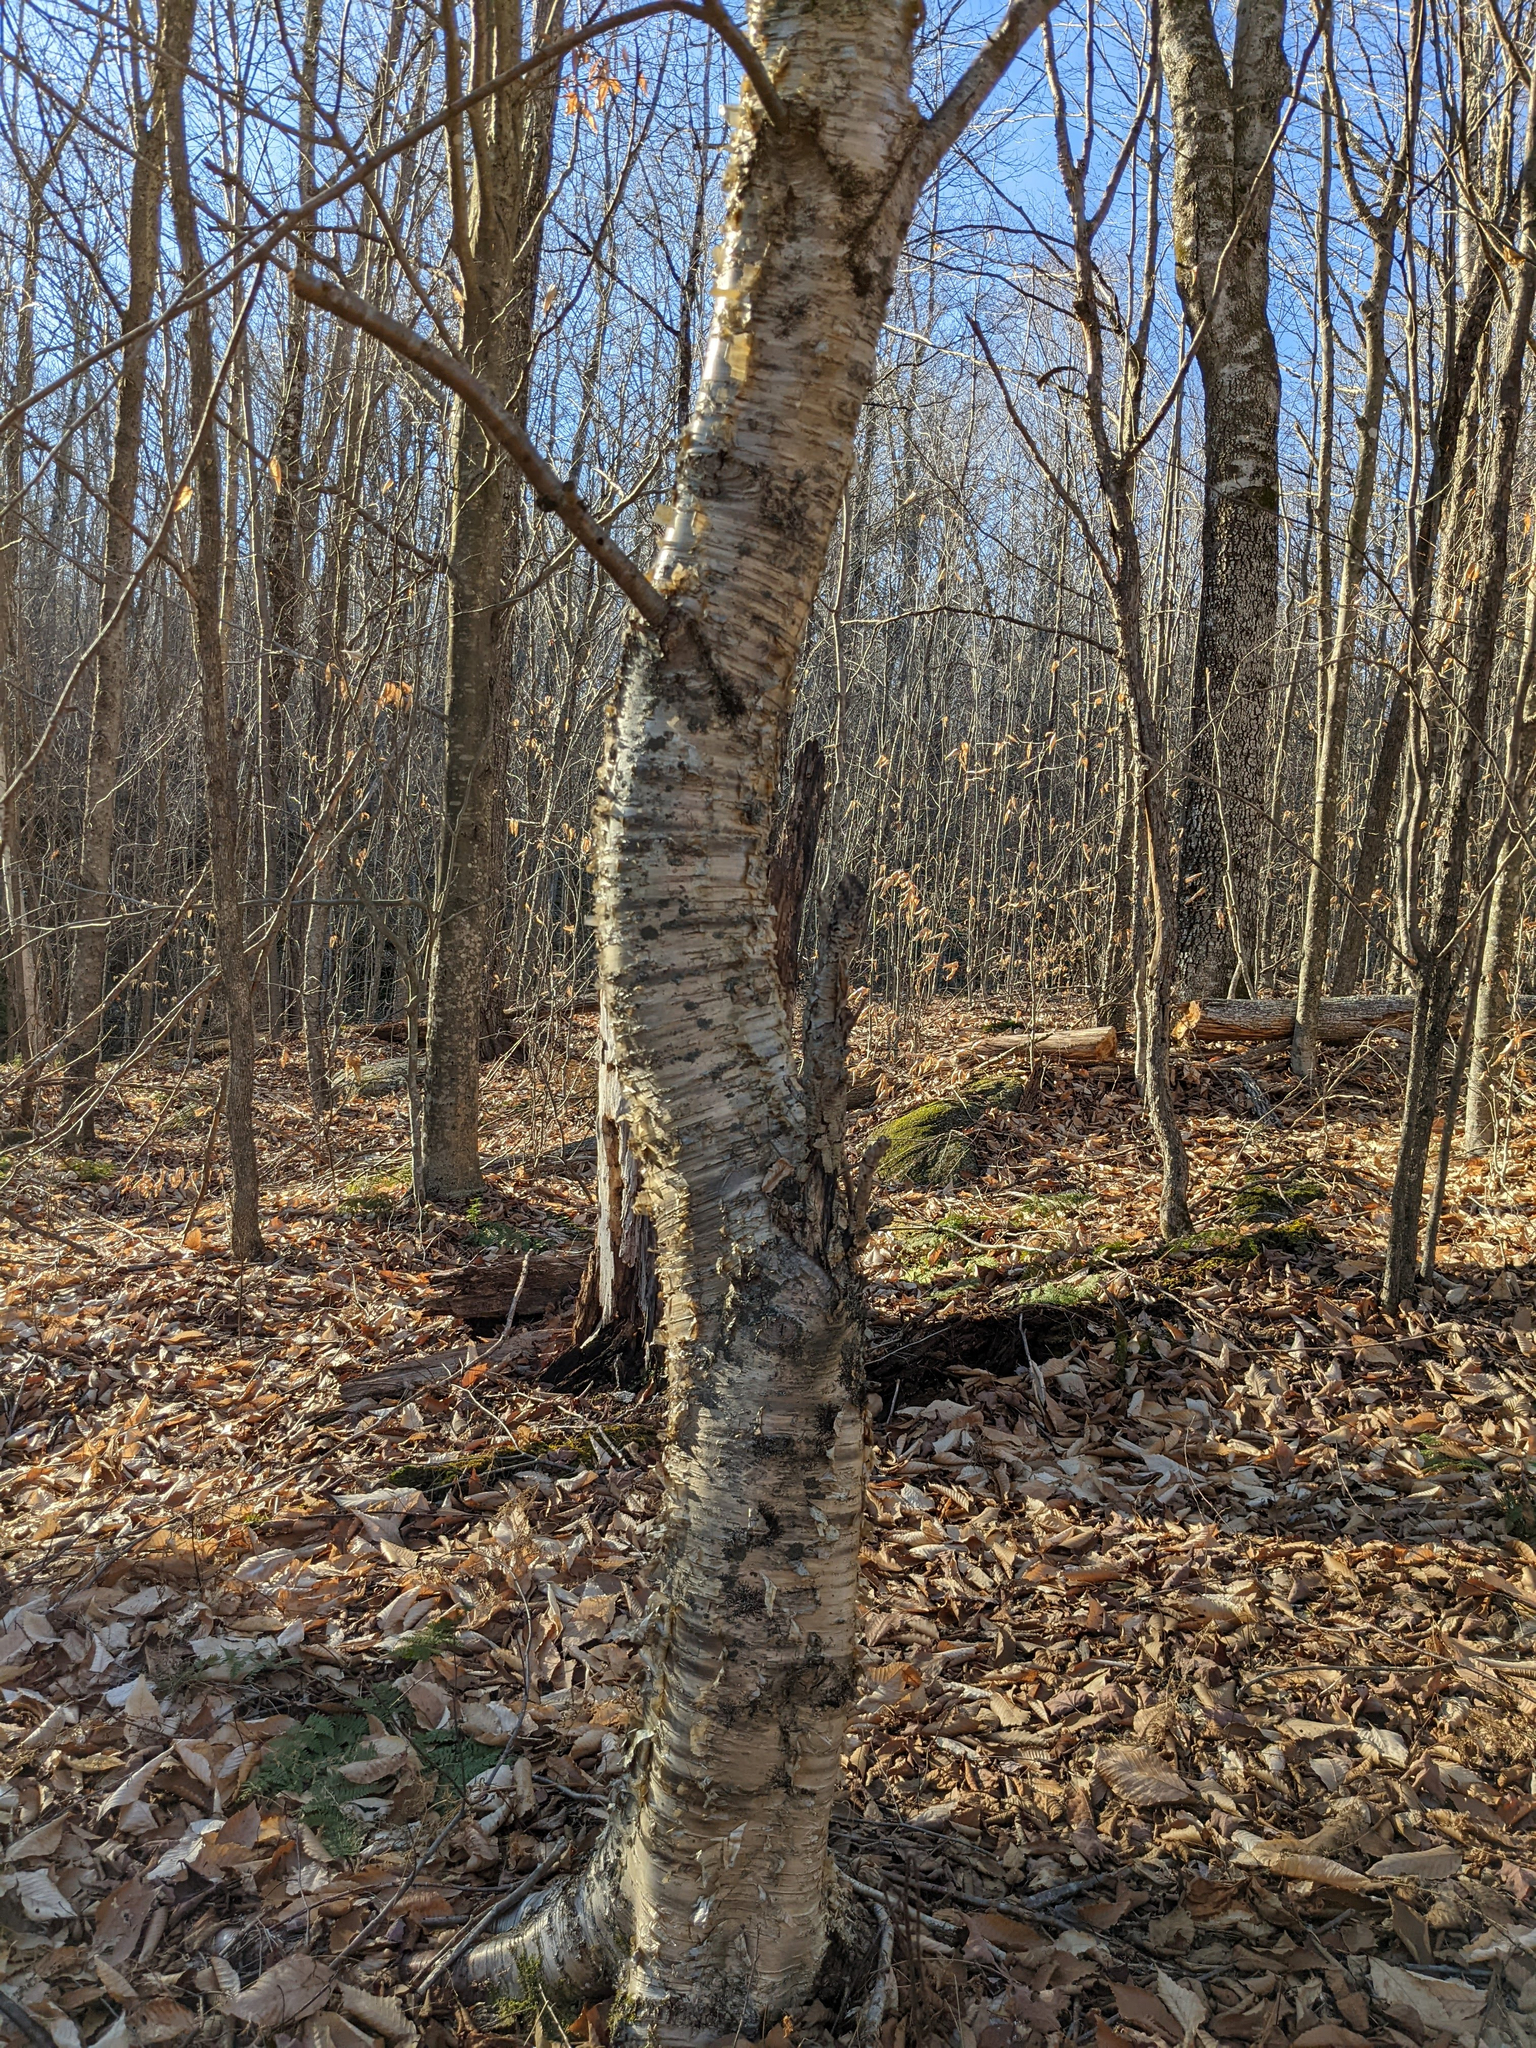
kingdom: Plantae
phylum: Tracheophyta
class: Magnoliopsida
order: Fagales
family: Betulaceae
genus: Betula
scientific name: Betula alleghaniensis
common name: Yellow birch
